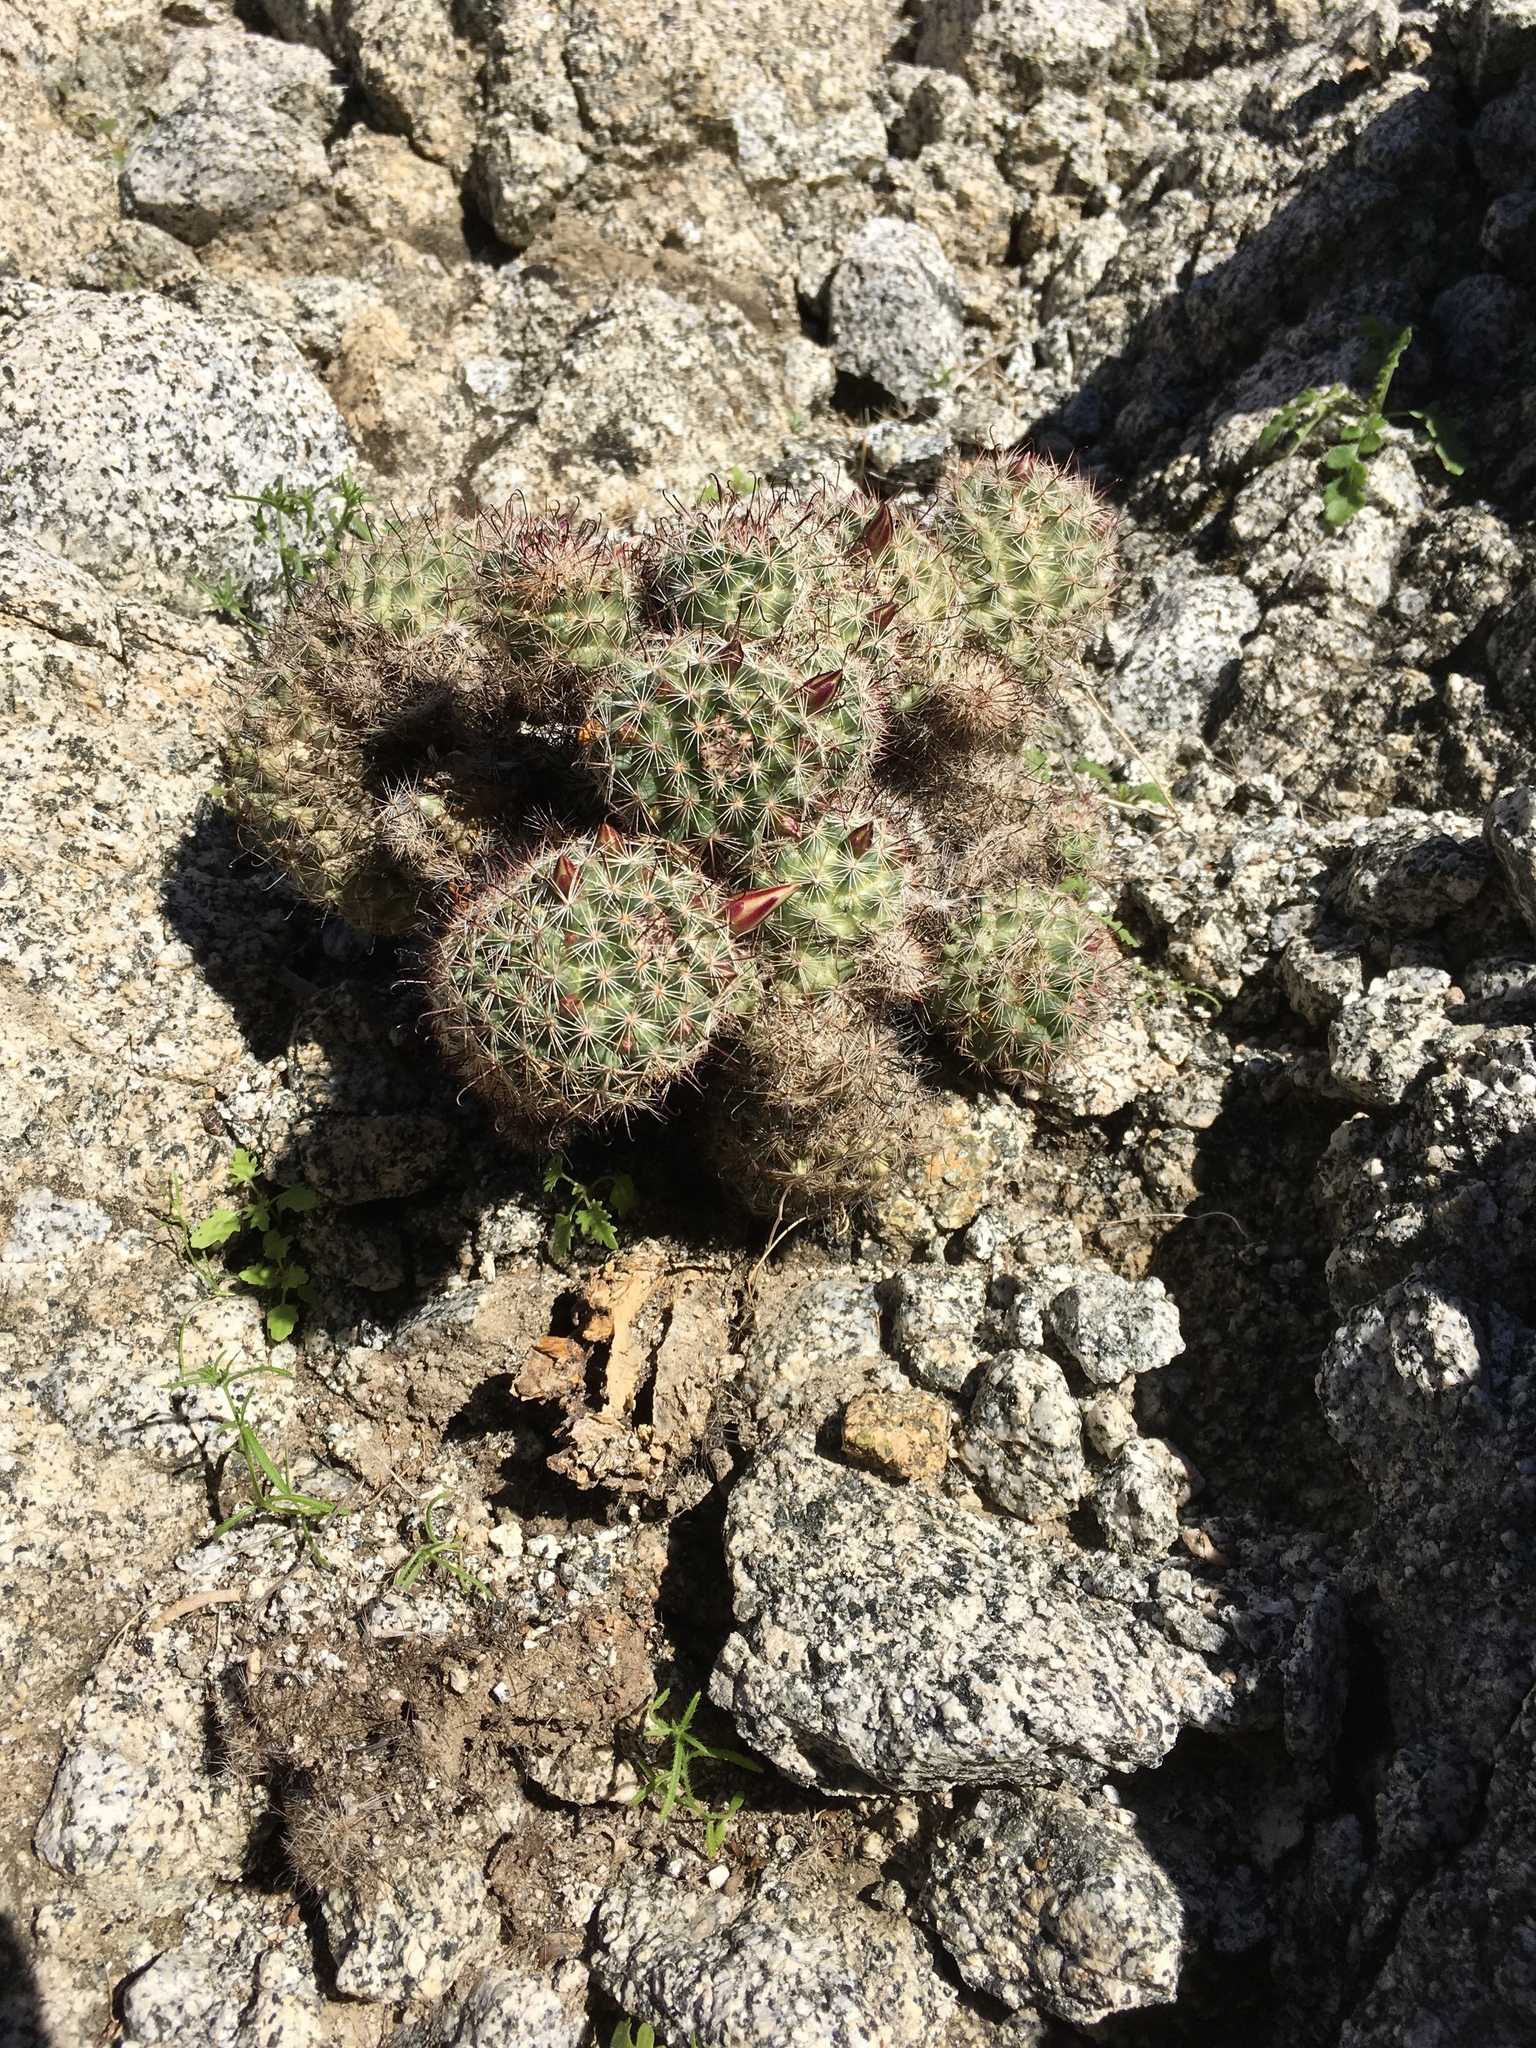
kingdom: Plantae
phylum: Tracheophyta
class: Magnoliopsida
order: Caryophyllales
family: Cactaceae
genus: Cochemiea
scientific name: Cochemiea dioica
